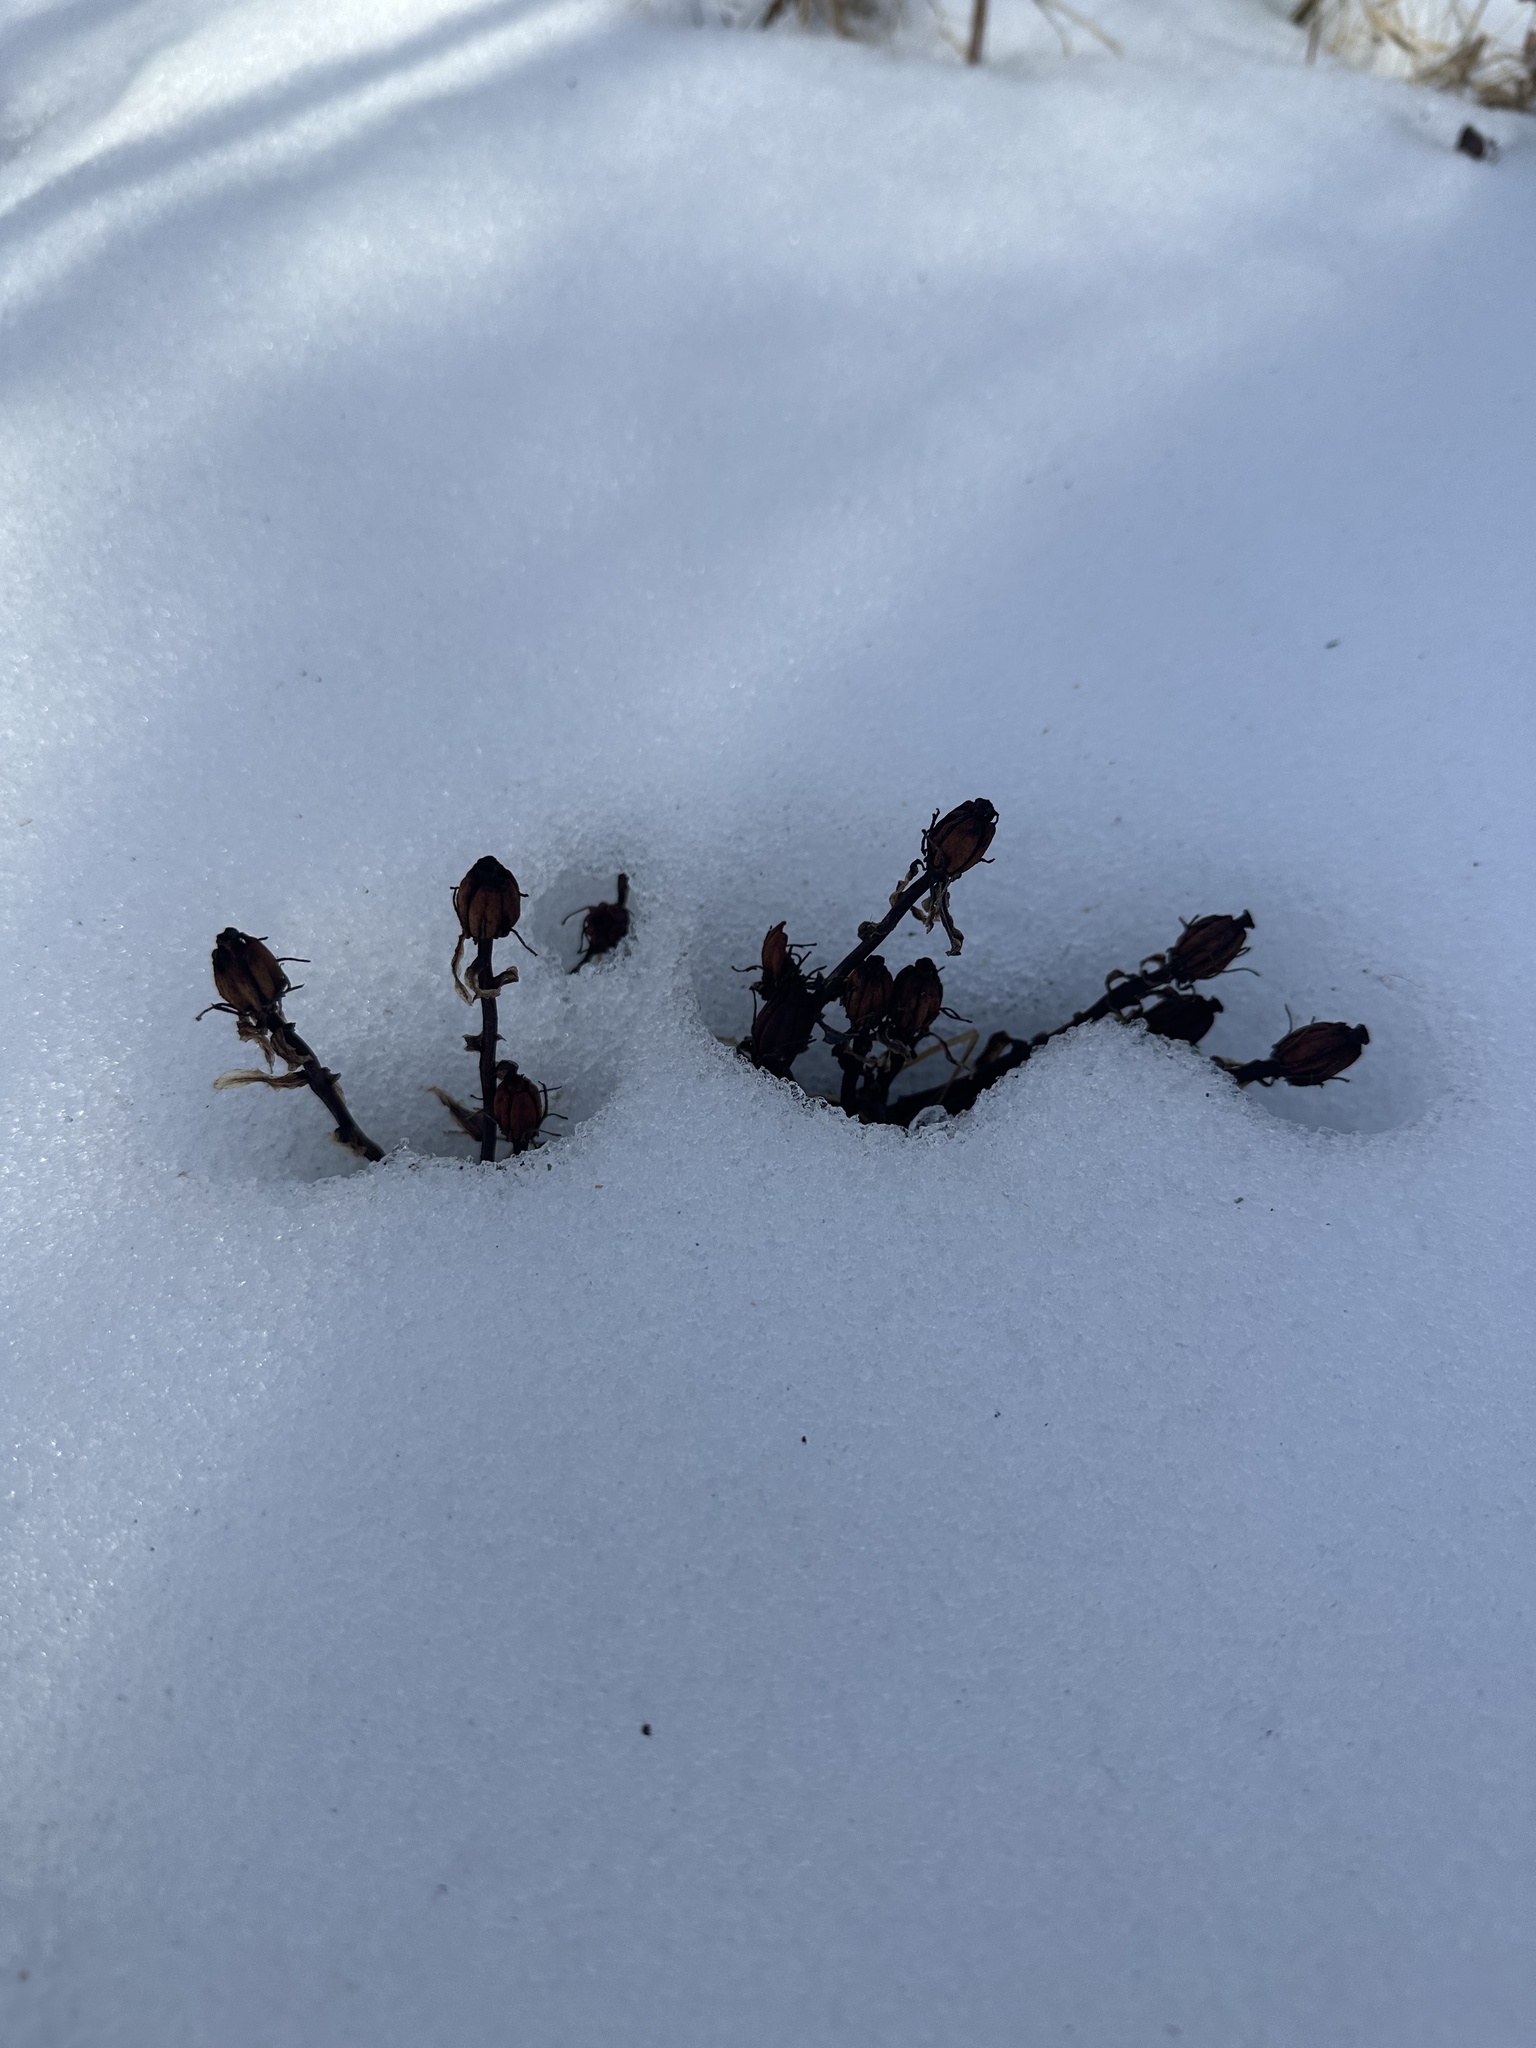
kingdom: Plantae
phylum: Tracheophyta
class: Magnoliopsida
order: Ericales
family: Ericaceae
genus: Monotropa
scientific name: Monotropa uniflora
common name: Convulsion root
